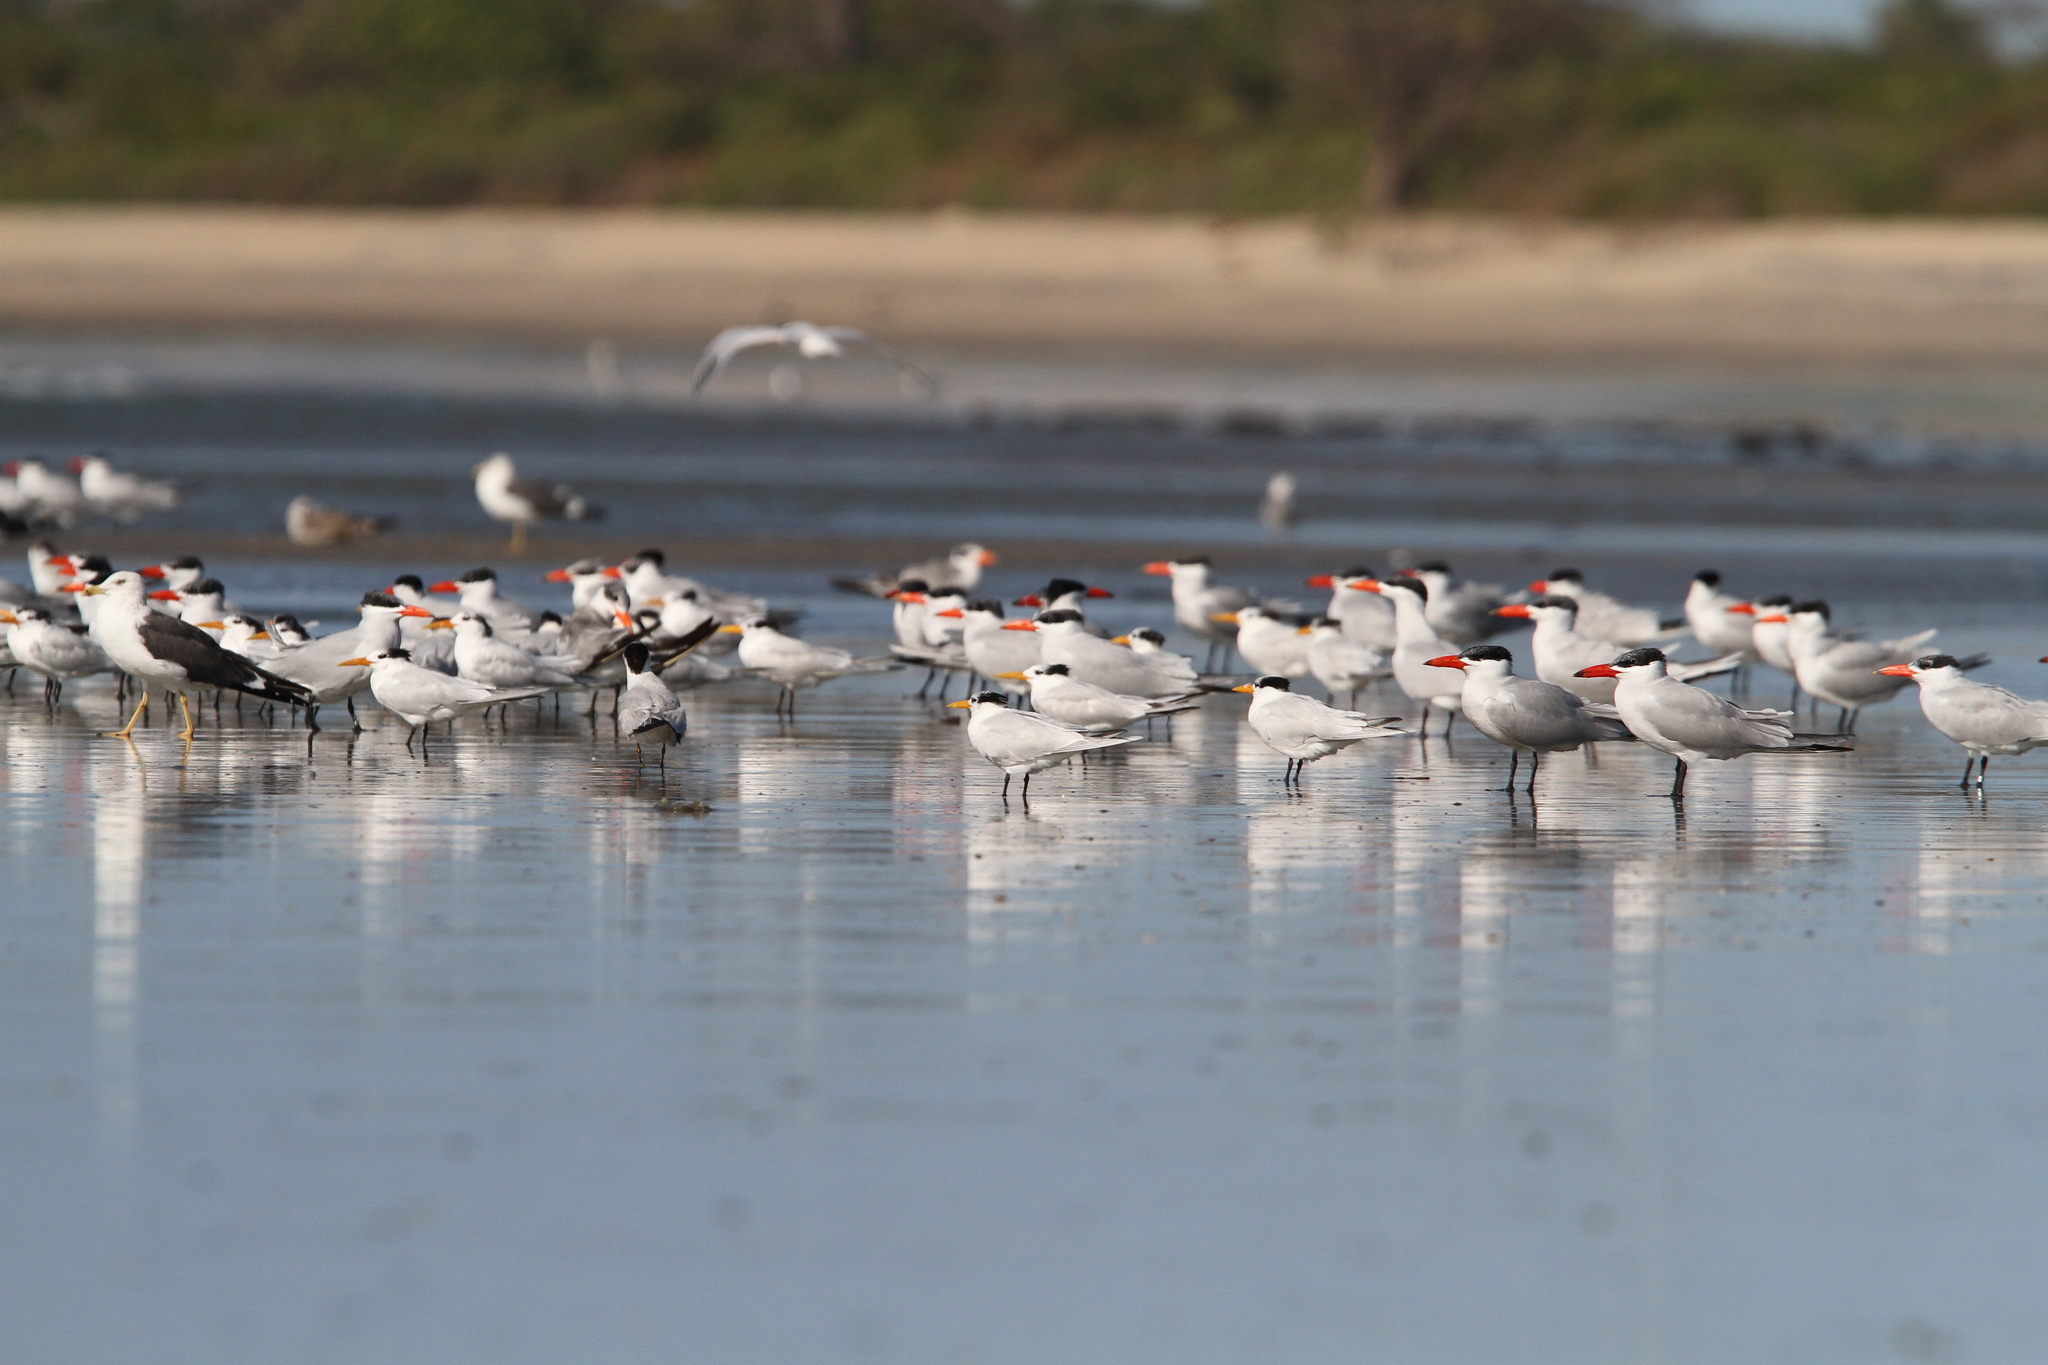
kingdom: Animalia
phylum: Chordata
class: Aves
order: Charadriiformes
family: Laridae
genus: Thalasseus
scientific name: Thalasseus albididorsalis
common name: West african crested tern
